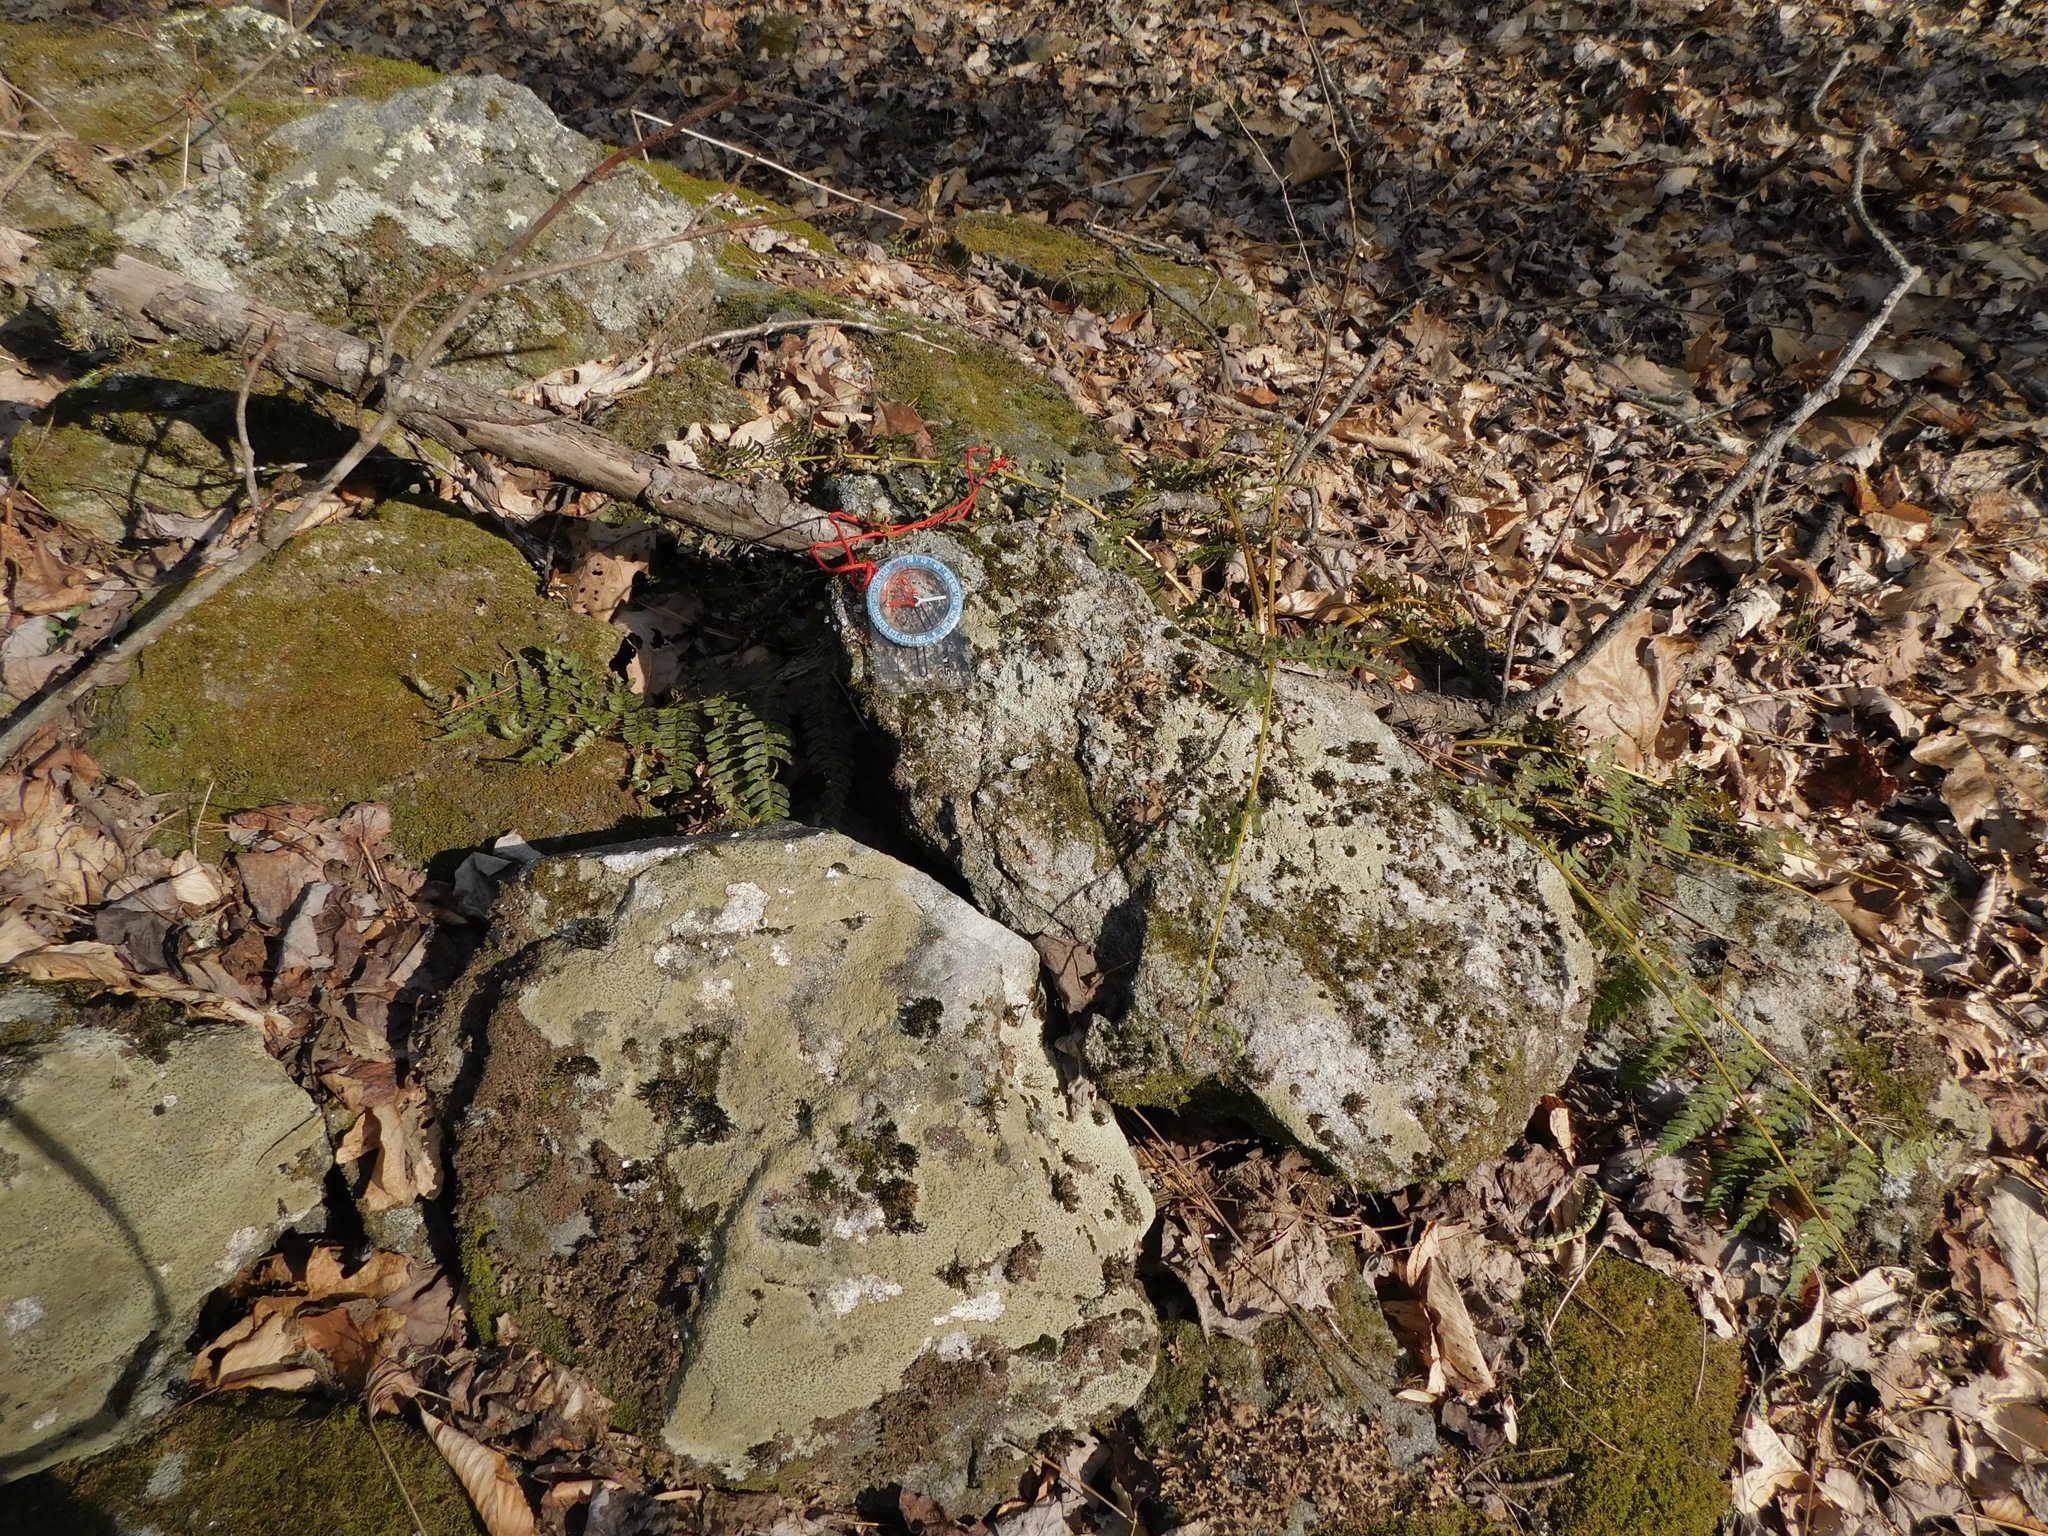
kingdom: Fungi
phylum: Ascomycota
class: Lecanoromycetes
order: Pertusariales
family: Ochrolechiaceae
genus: Ochrolechia
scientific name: Ochrolechia yasudae
